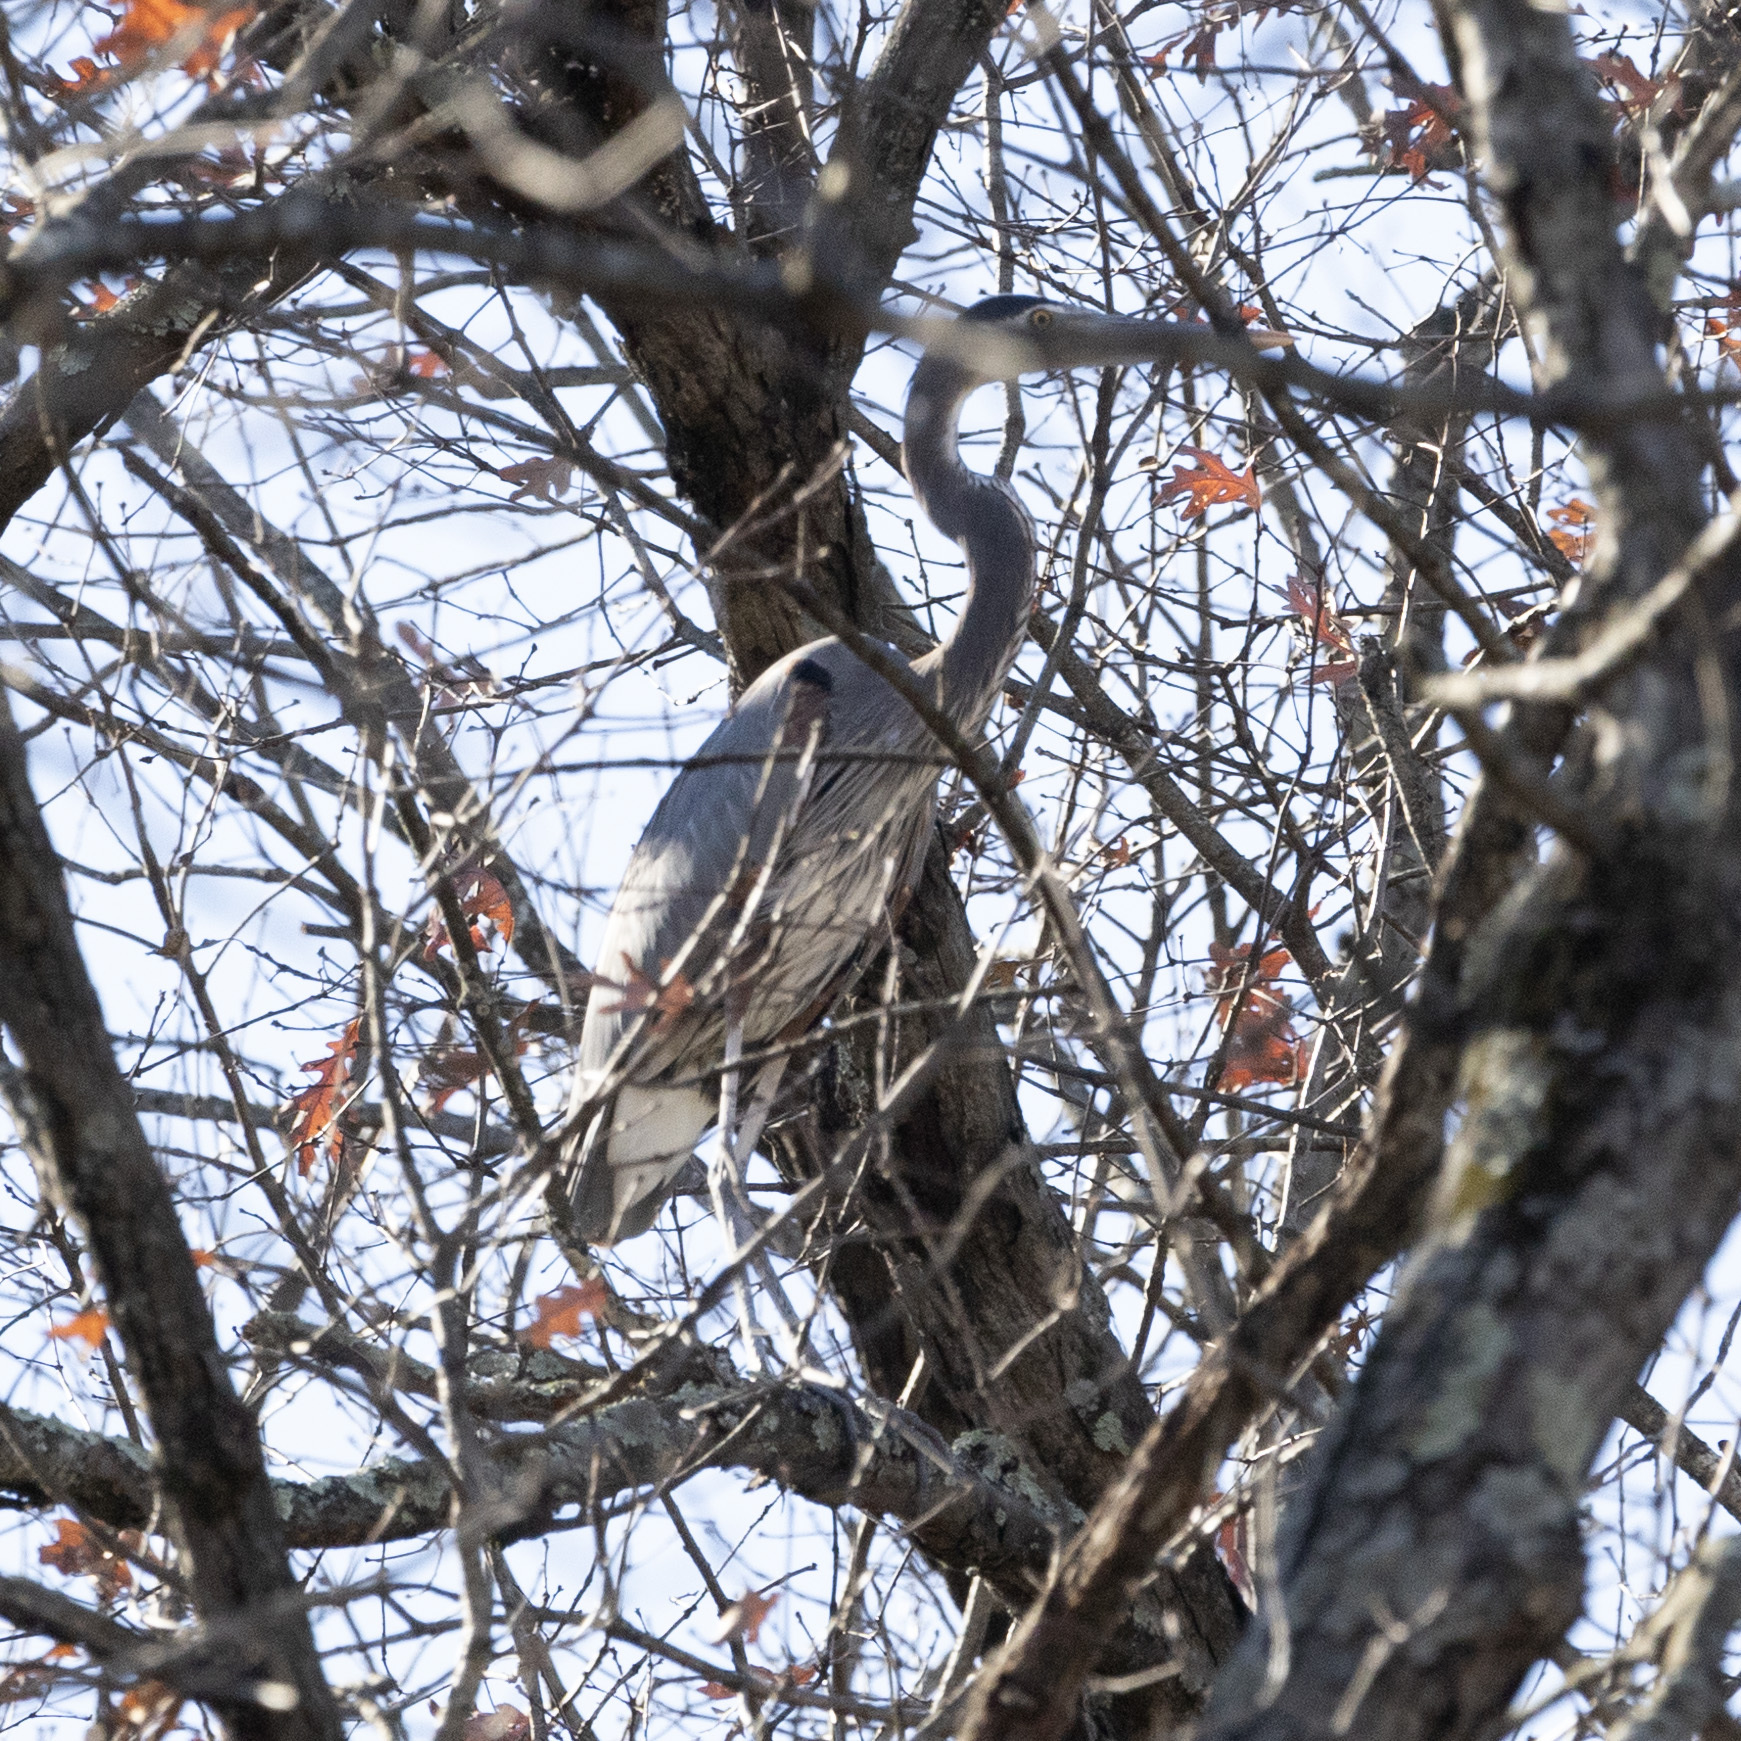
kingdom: Animalia
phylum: Chordata
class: Aves
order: Pelecaniformes
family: Ardeidae
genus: Ardea
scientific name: Ardea herodias
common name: Great blue heron
